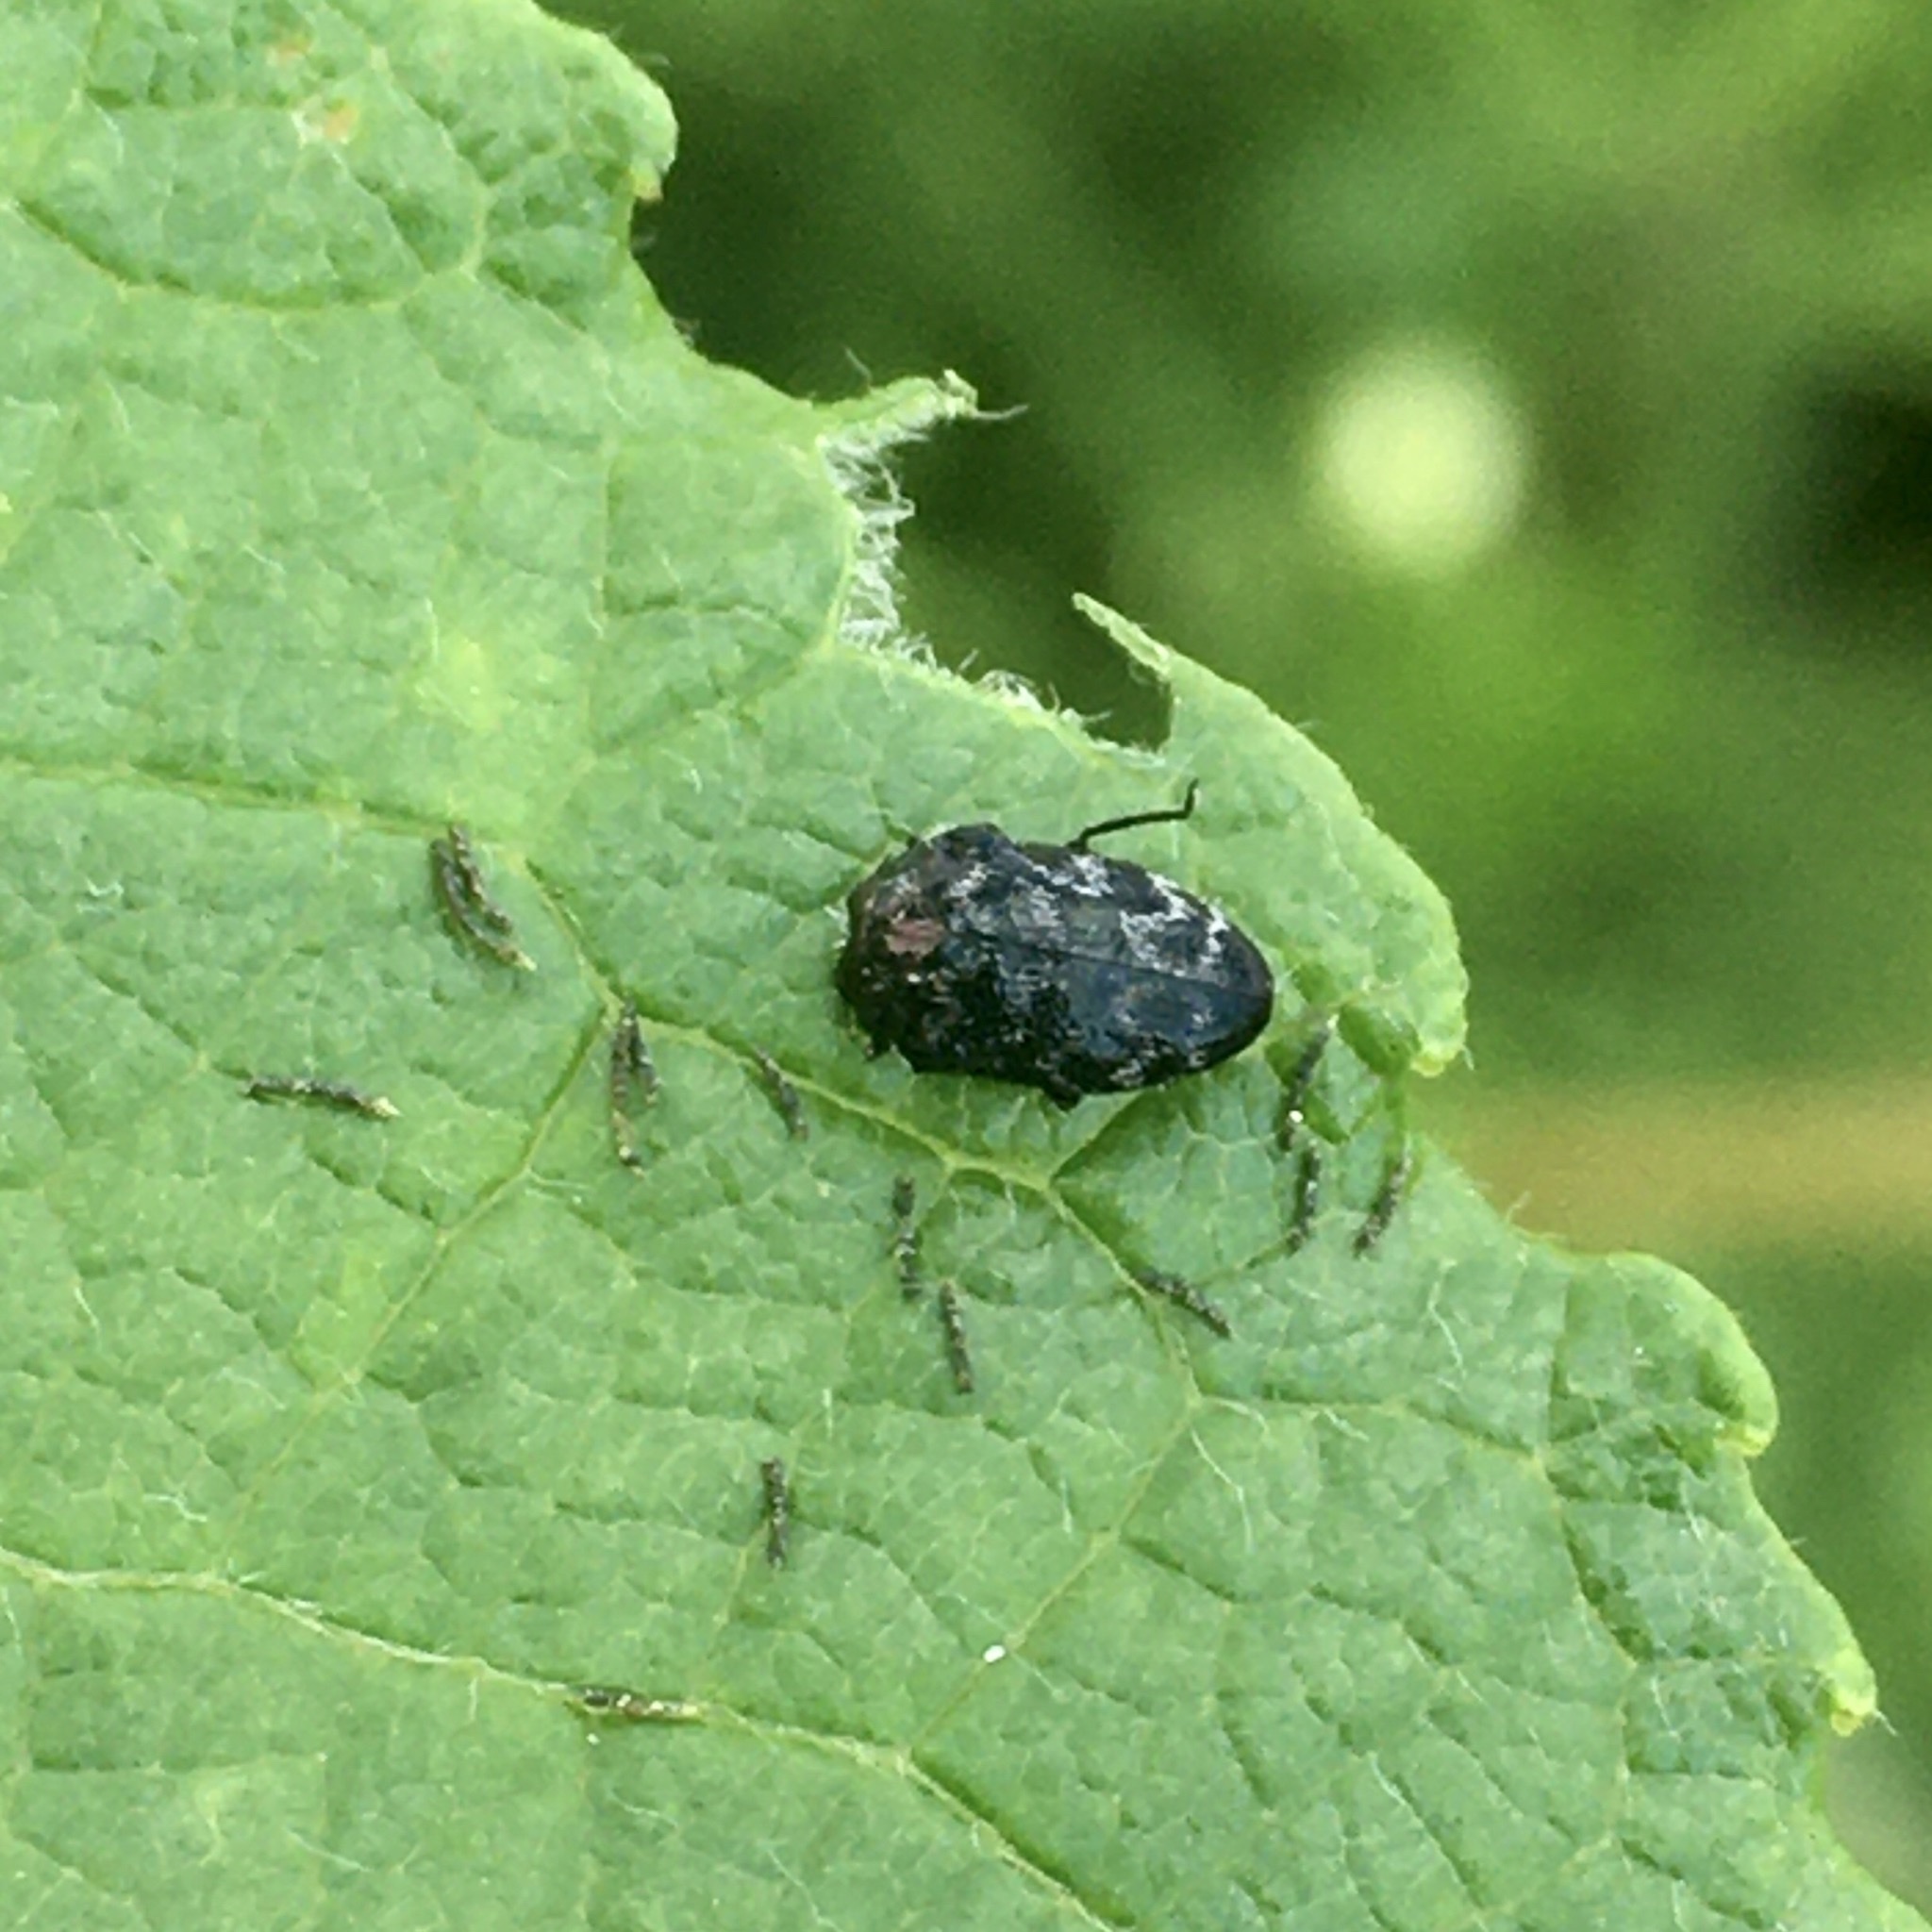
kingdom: Animalia
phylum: Arthropoda
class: Insecta
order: Coleoptera
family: Buprestidae
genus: Trachys
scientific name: Trachys minutus
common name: Metallic wood-boring beetle
